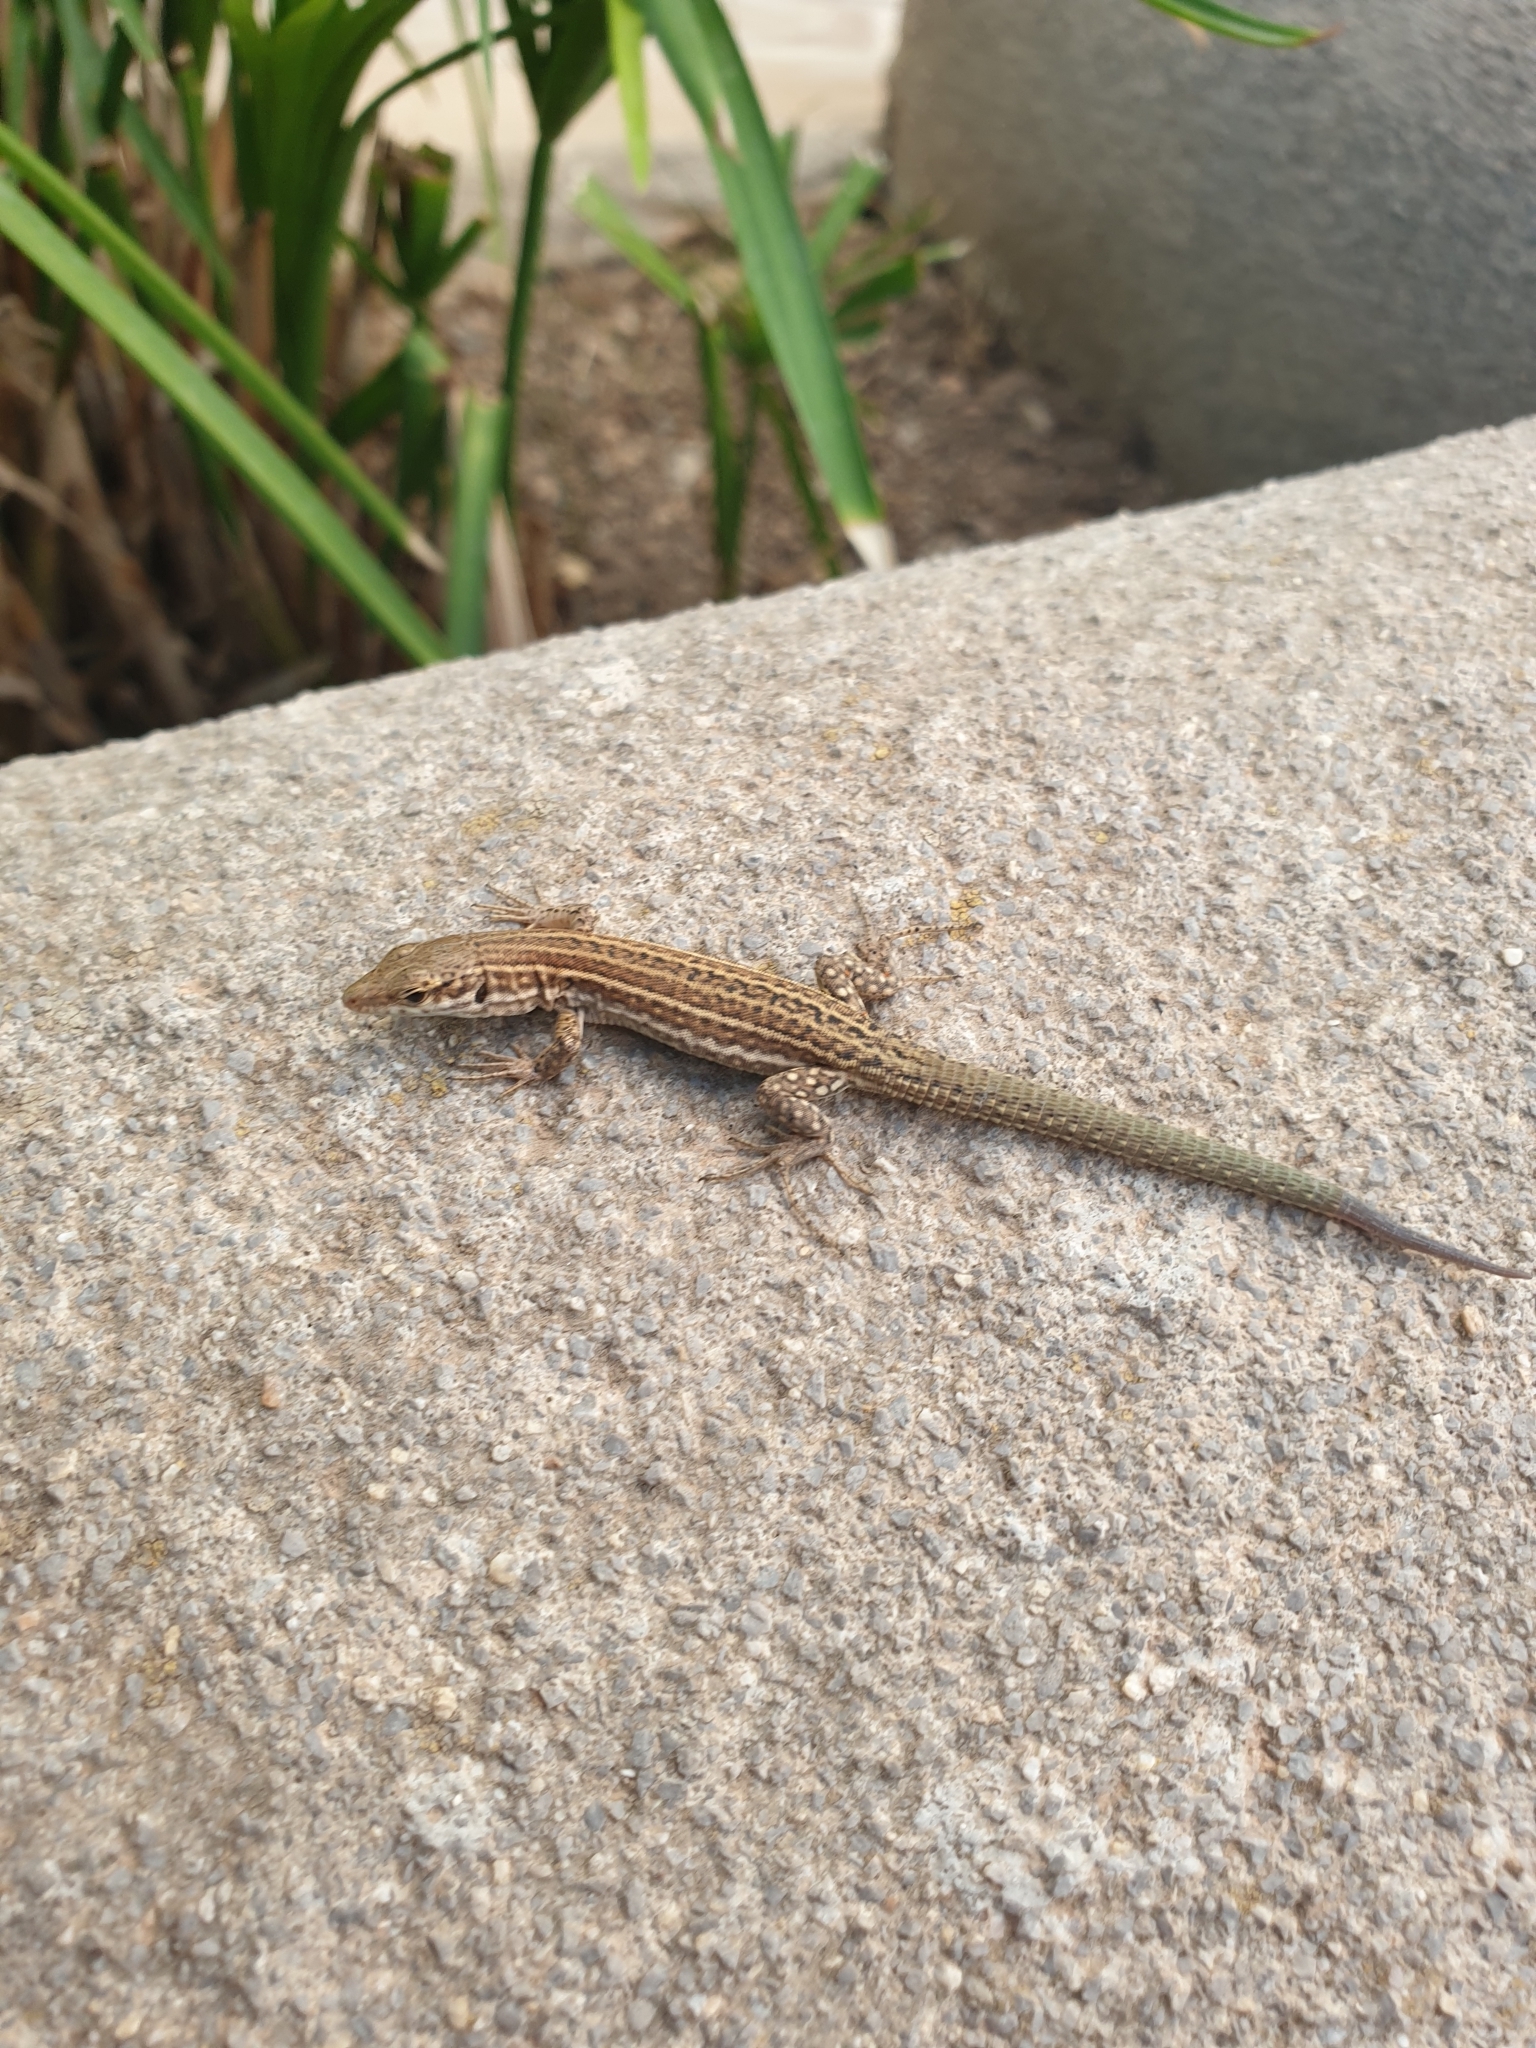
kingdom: Animalia
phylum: Chordata
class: Squamata
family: Lacertidae
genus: Podarcis
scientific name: Podarcis pityusensis
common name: Ibiza wall lizard
